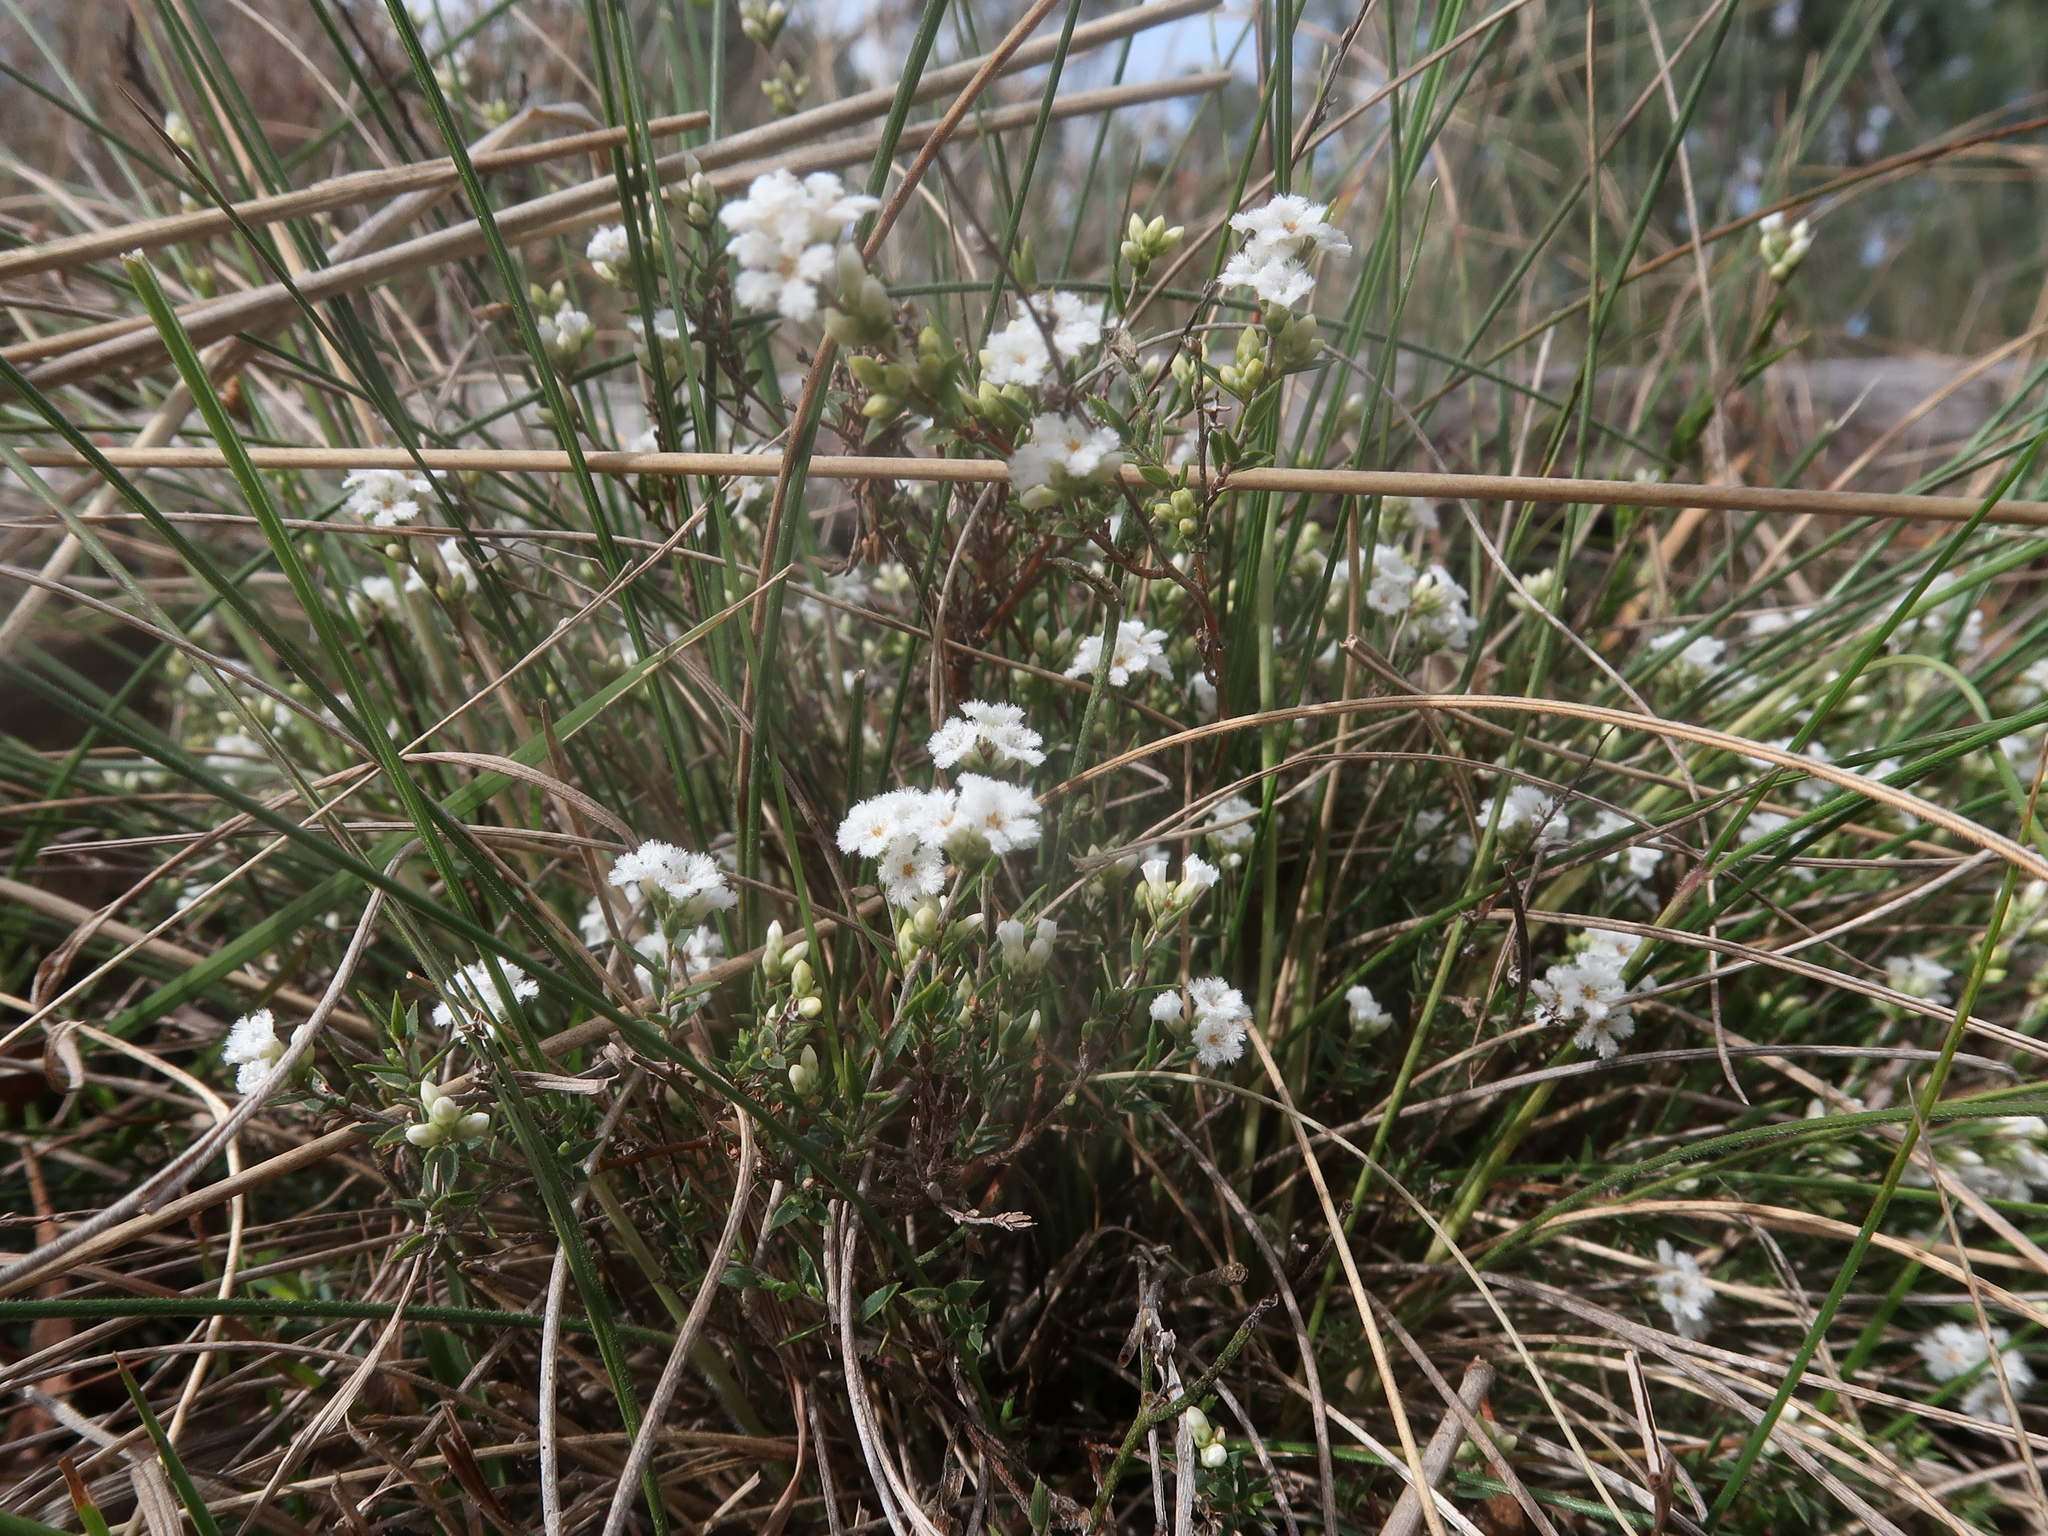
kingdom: Plantae
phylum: Tracheophyta
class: Magnoliopsida
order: Ericales
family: Ericaceae
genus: Leucopogon
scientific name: Leucopogon virgatus
